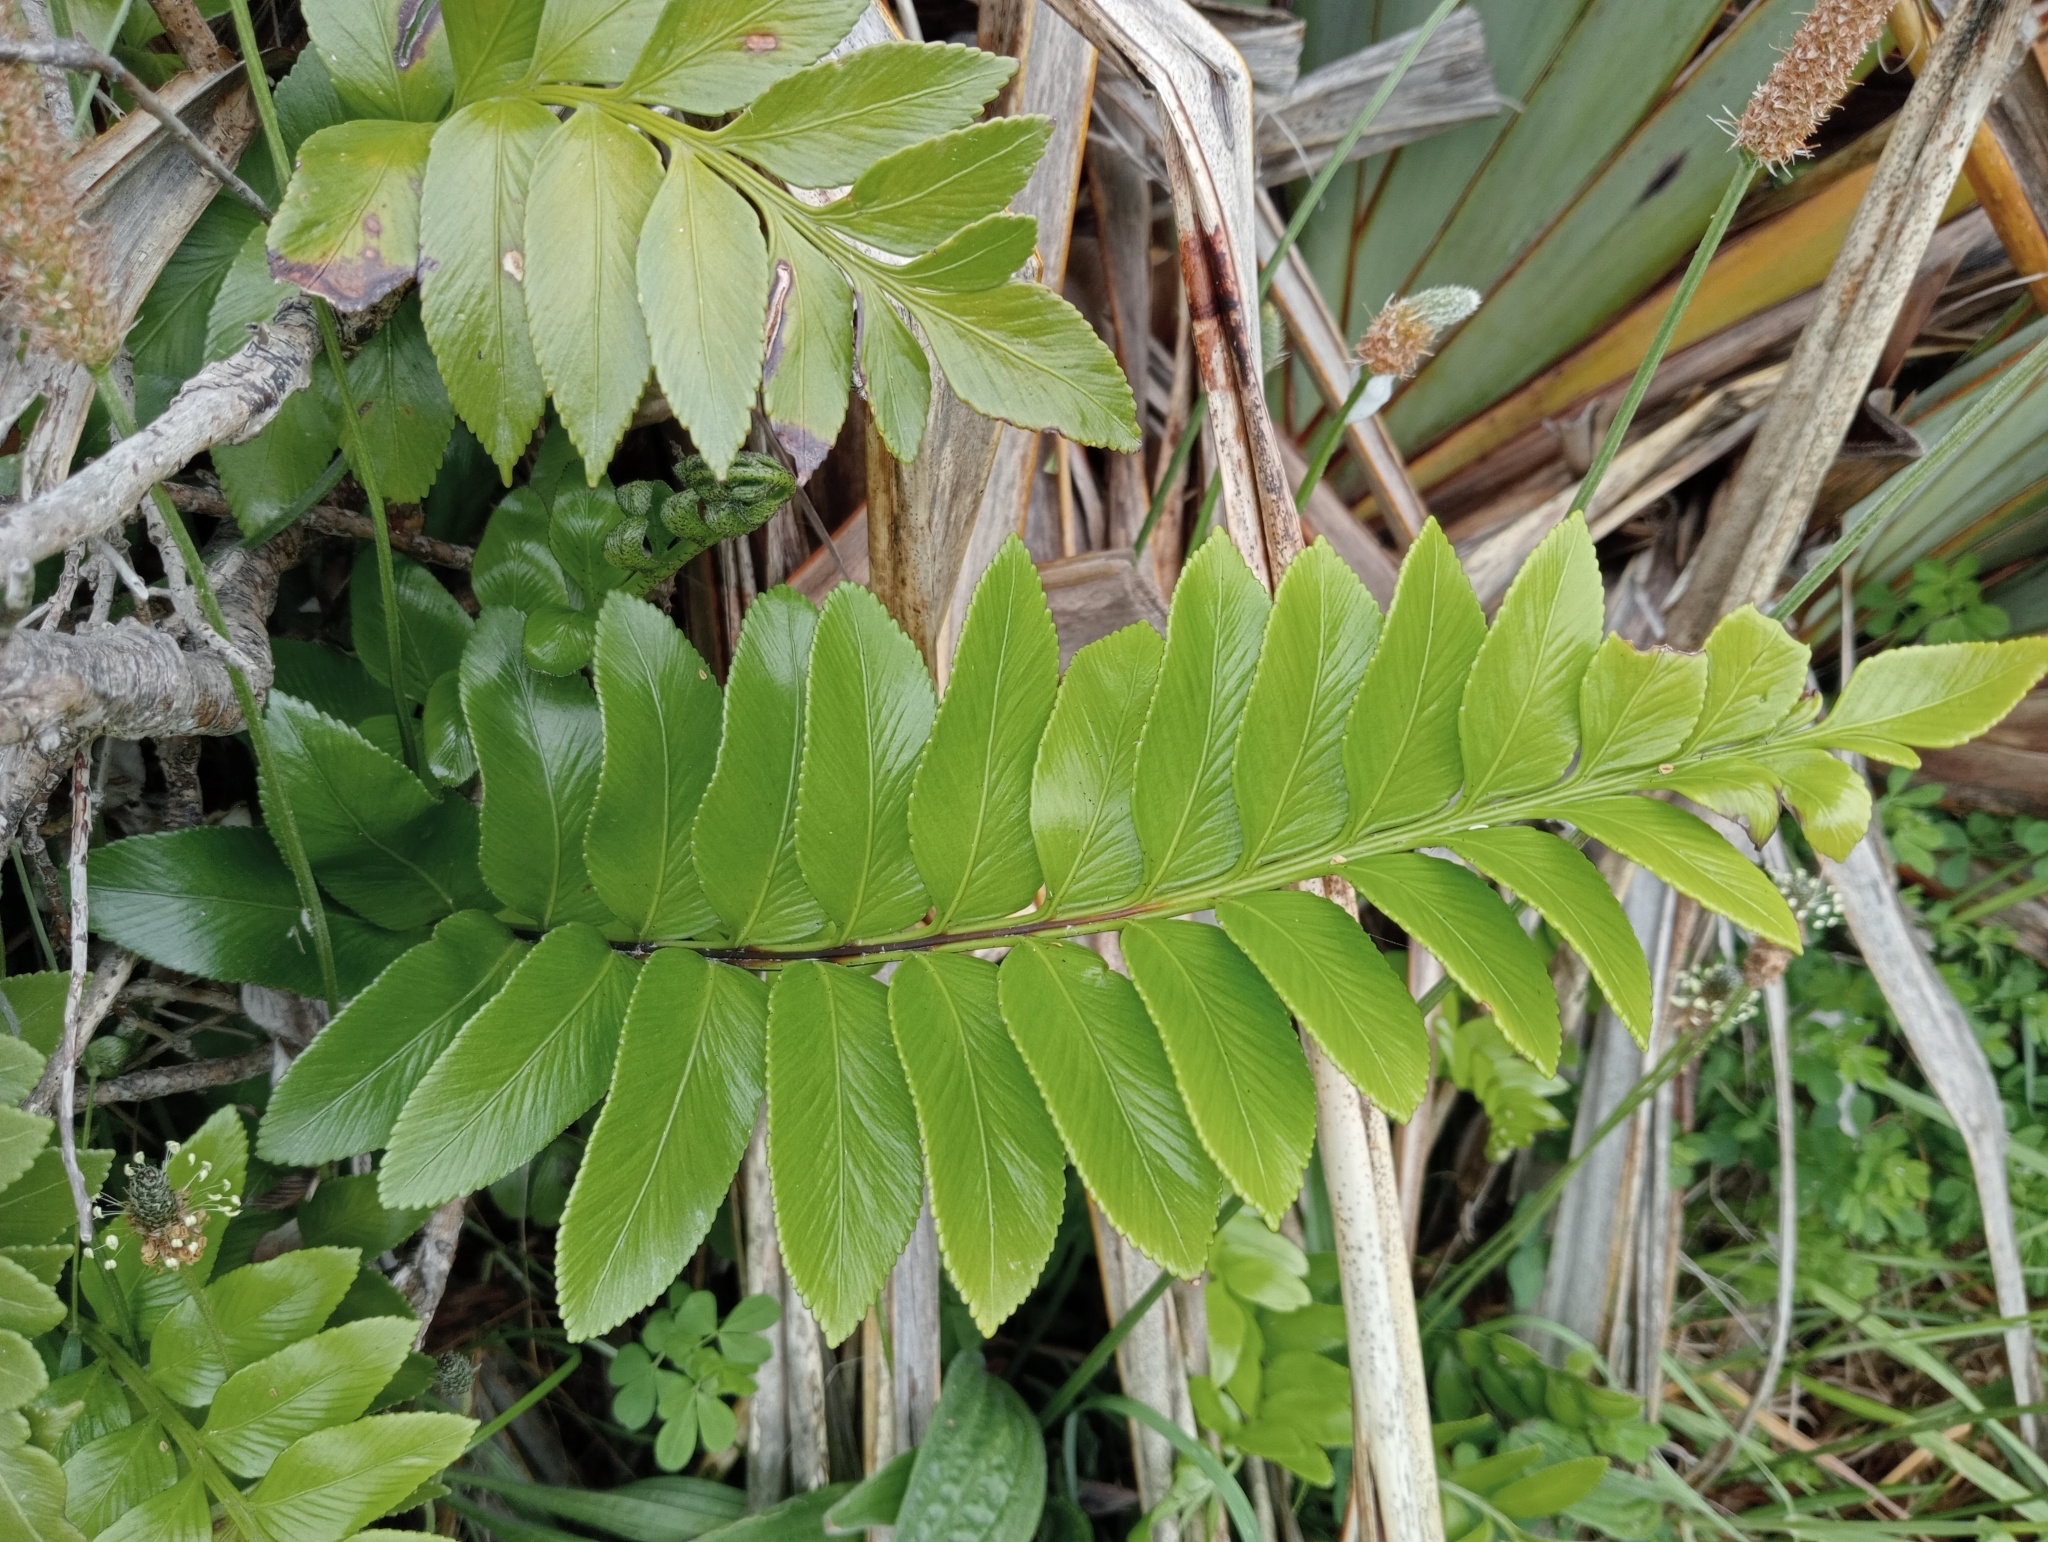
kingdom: Plantae
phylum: Tracheophyta
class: Polypodiopsida
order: Polypodiales
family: Aspleniaceae
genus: Asplenium
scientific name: Asplenium obtusatum
